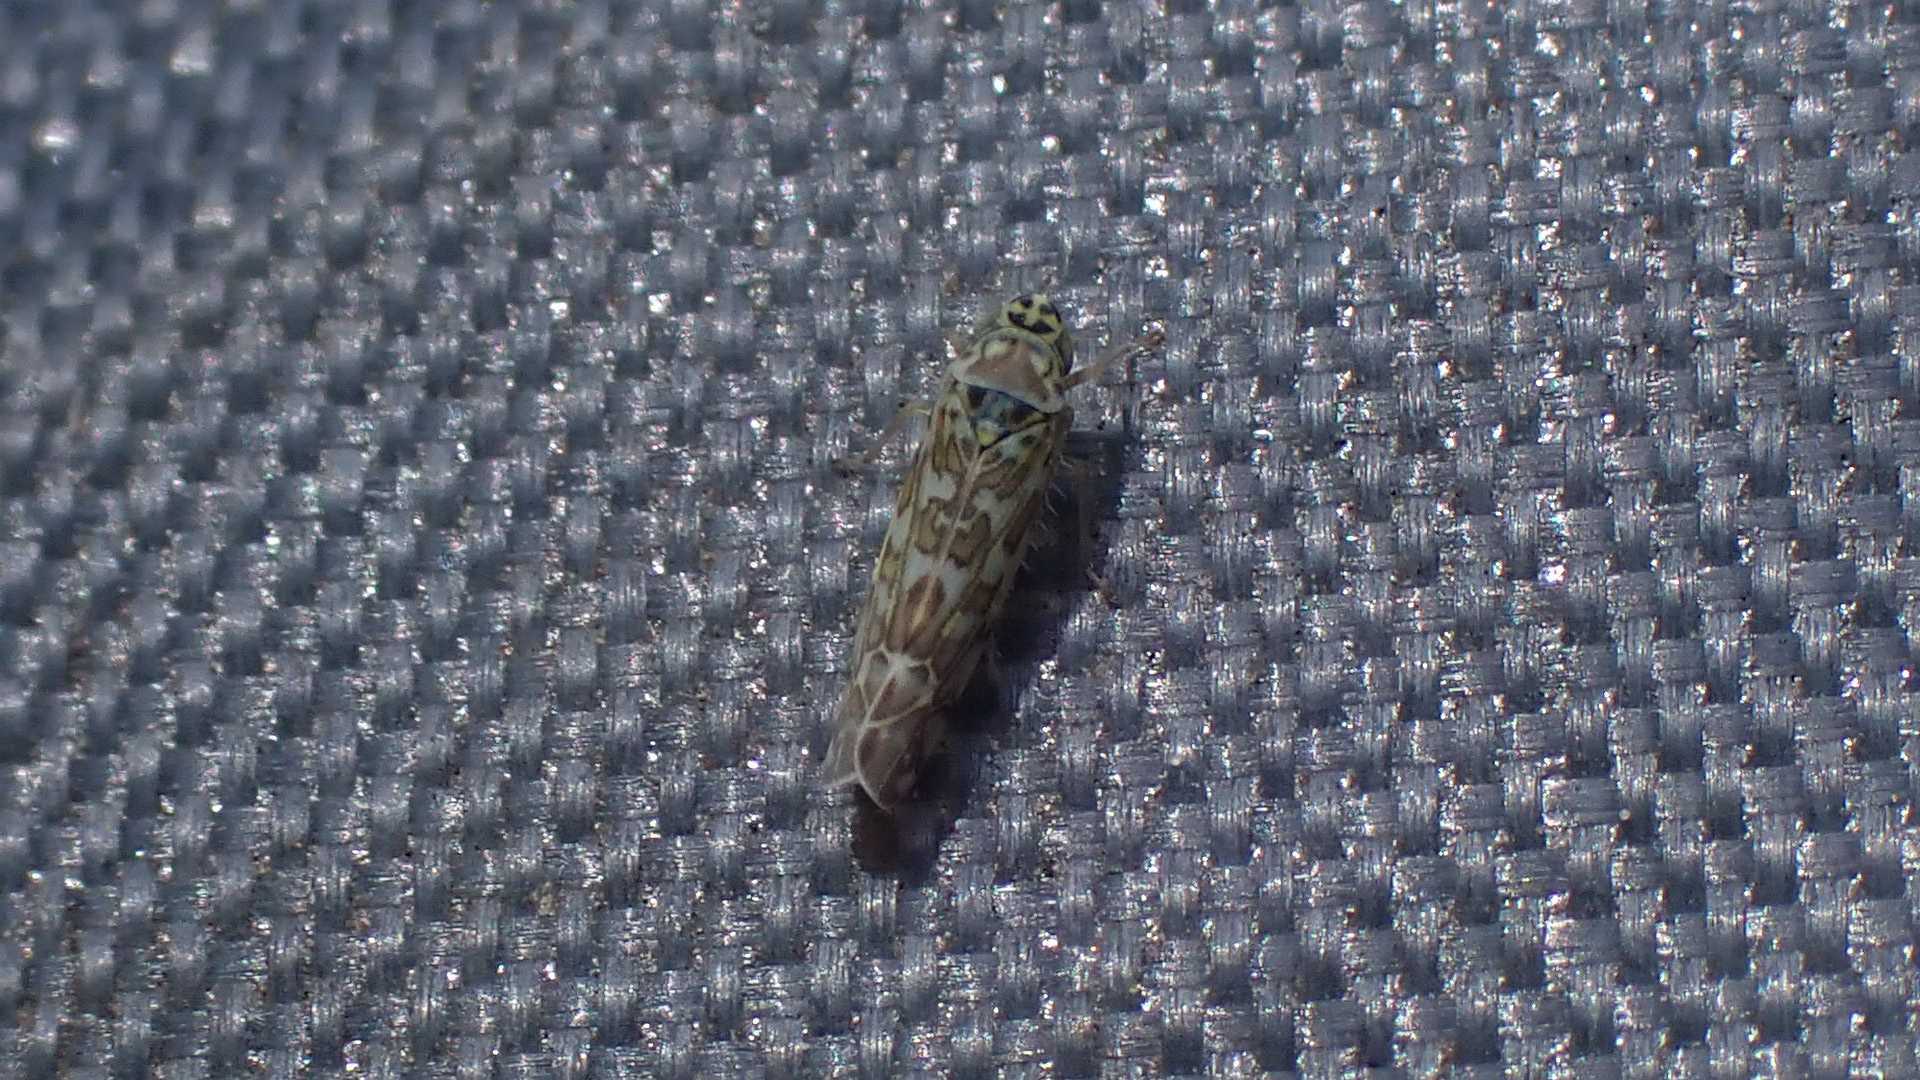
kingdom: Animalia
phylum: Arthropoda
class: Insecta
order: Hemiptera
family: Cicadellidae
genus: Eupteryx
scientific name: Eupteryx decemnotata
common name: Ligurian leafhopper
